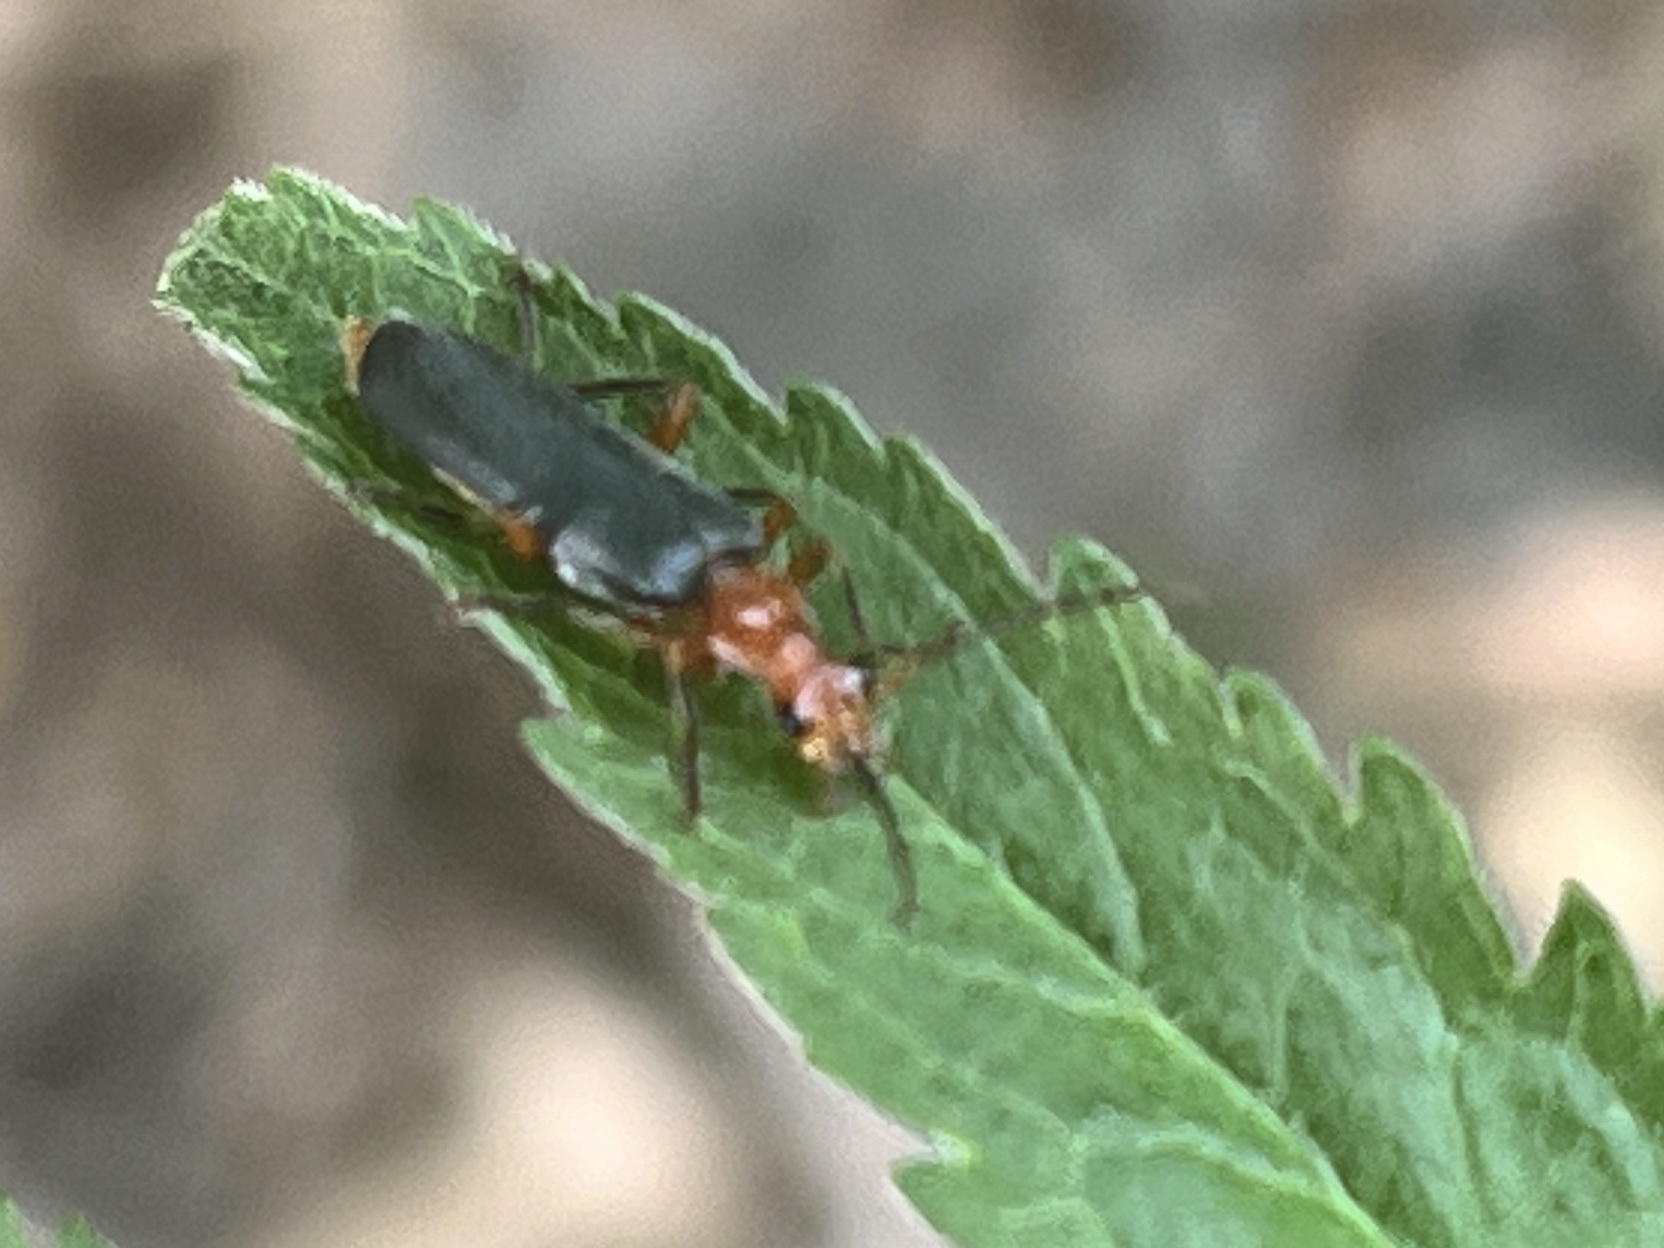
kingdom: Animalia
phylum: Arthropoda
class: Insecta
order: Coleoptera
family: Cantharidae
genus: Podabrus
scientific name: Podabrus tomentosus
